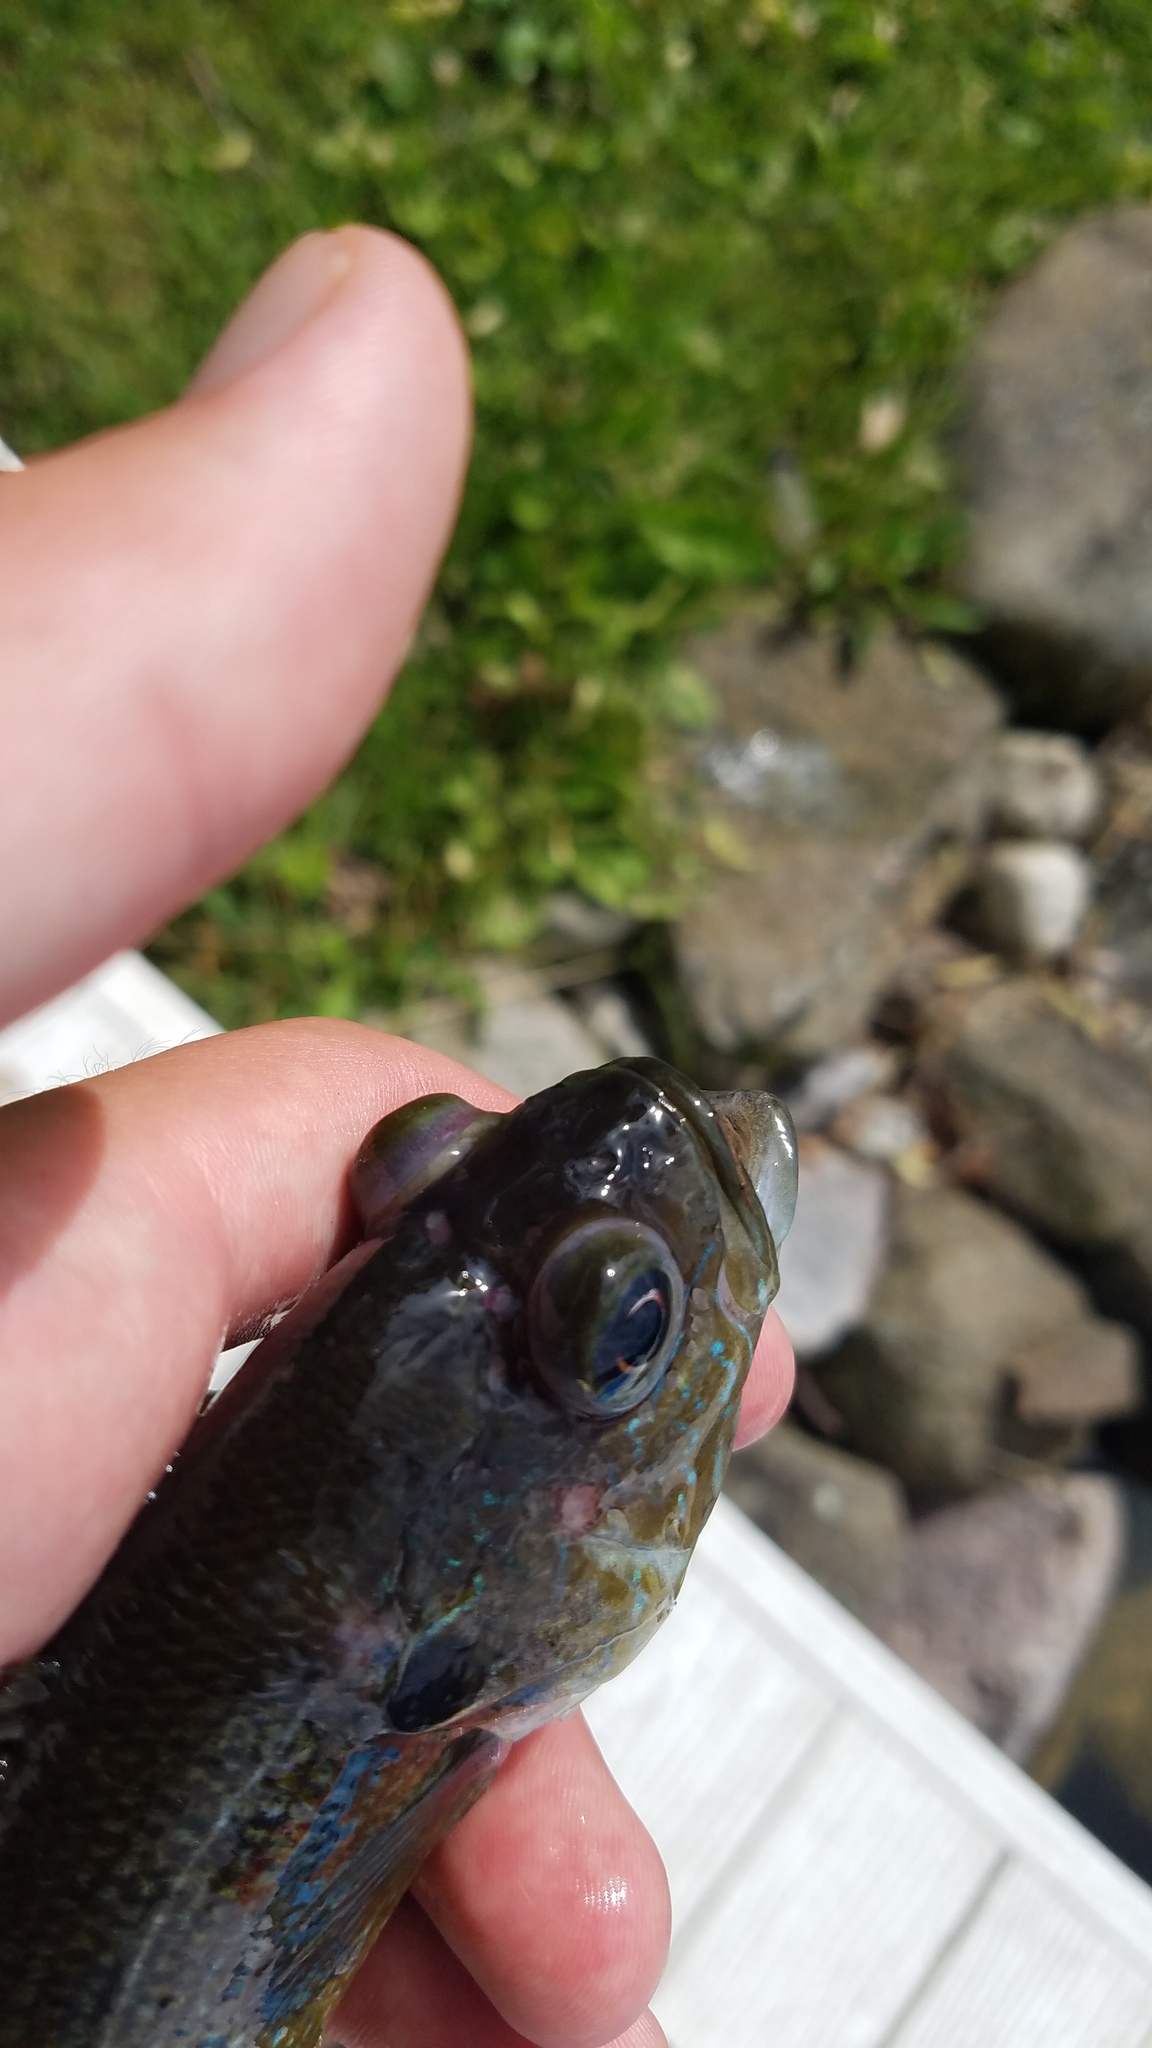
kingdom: Animalia
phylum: Chordata
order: Perciformes
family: Centrarchidae
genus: Lepomis
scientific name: Lepomis cyanellus
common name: Green sunfish
